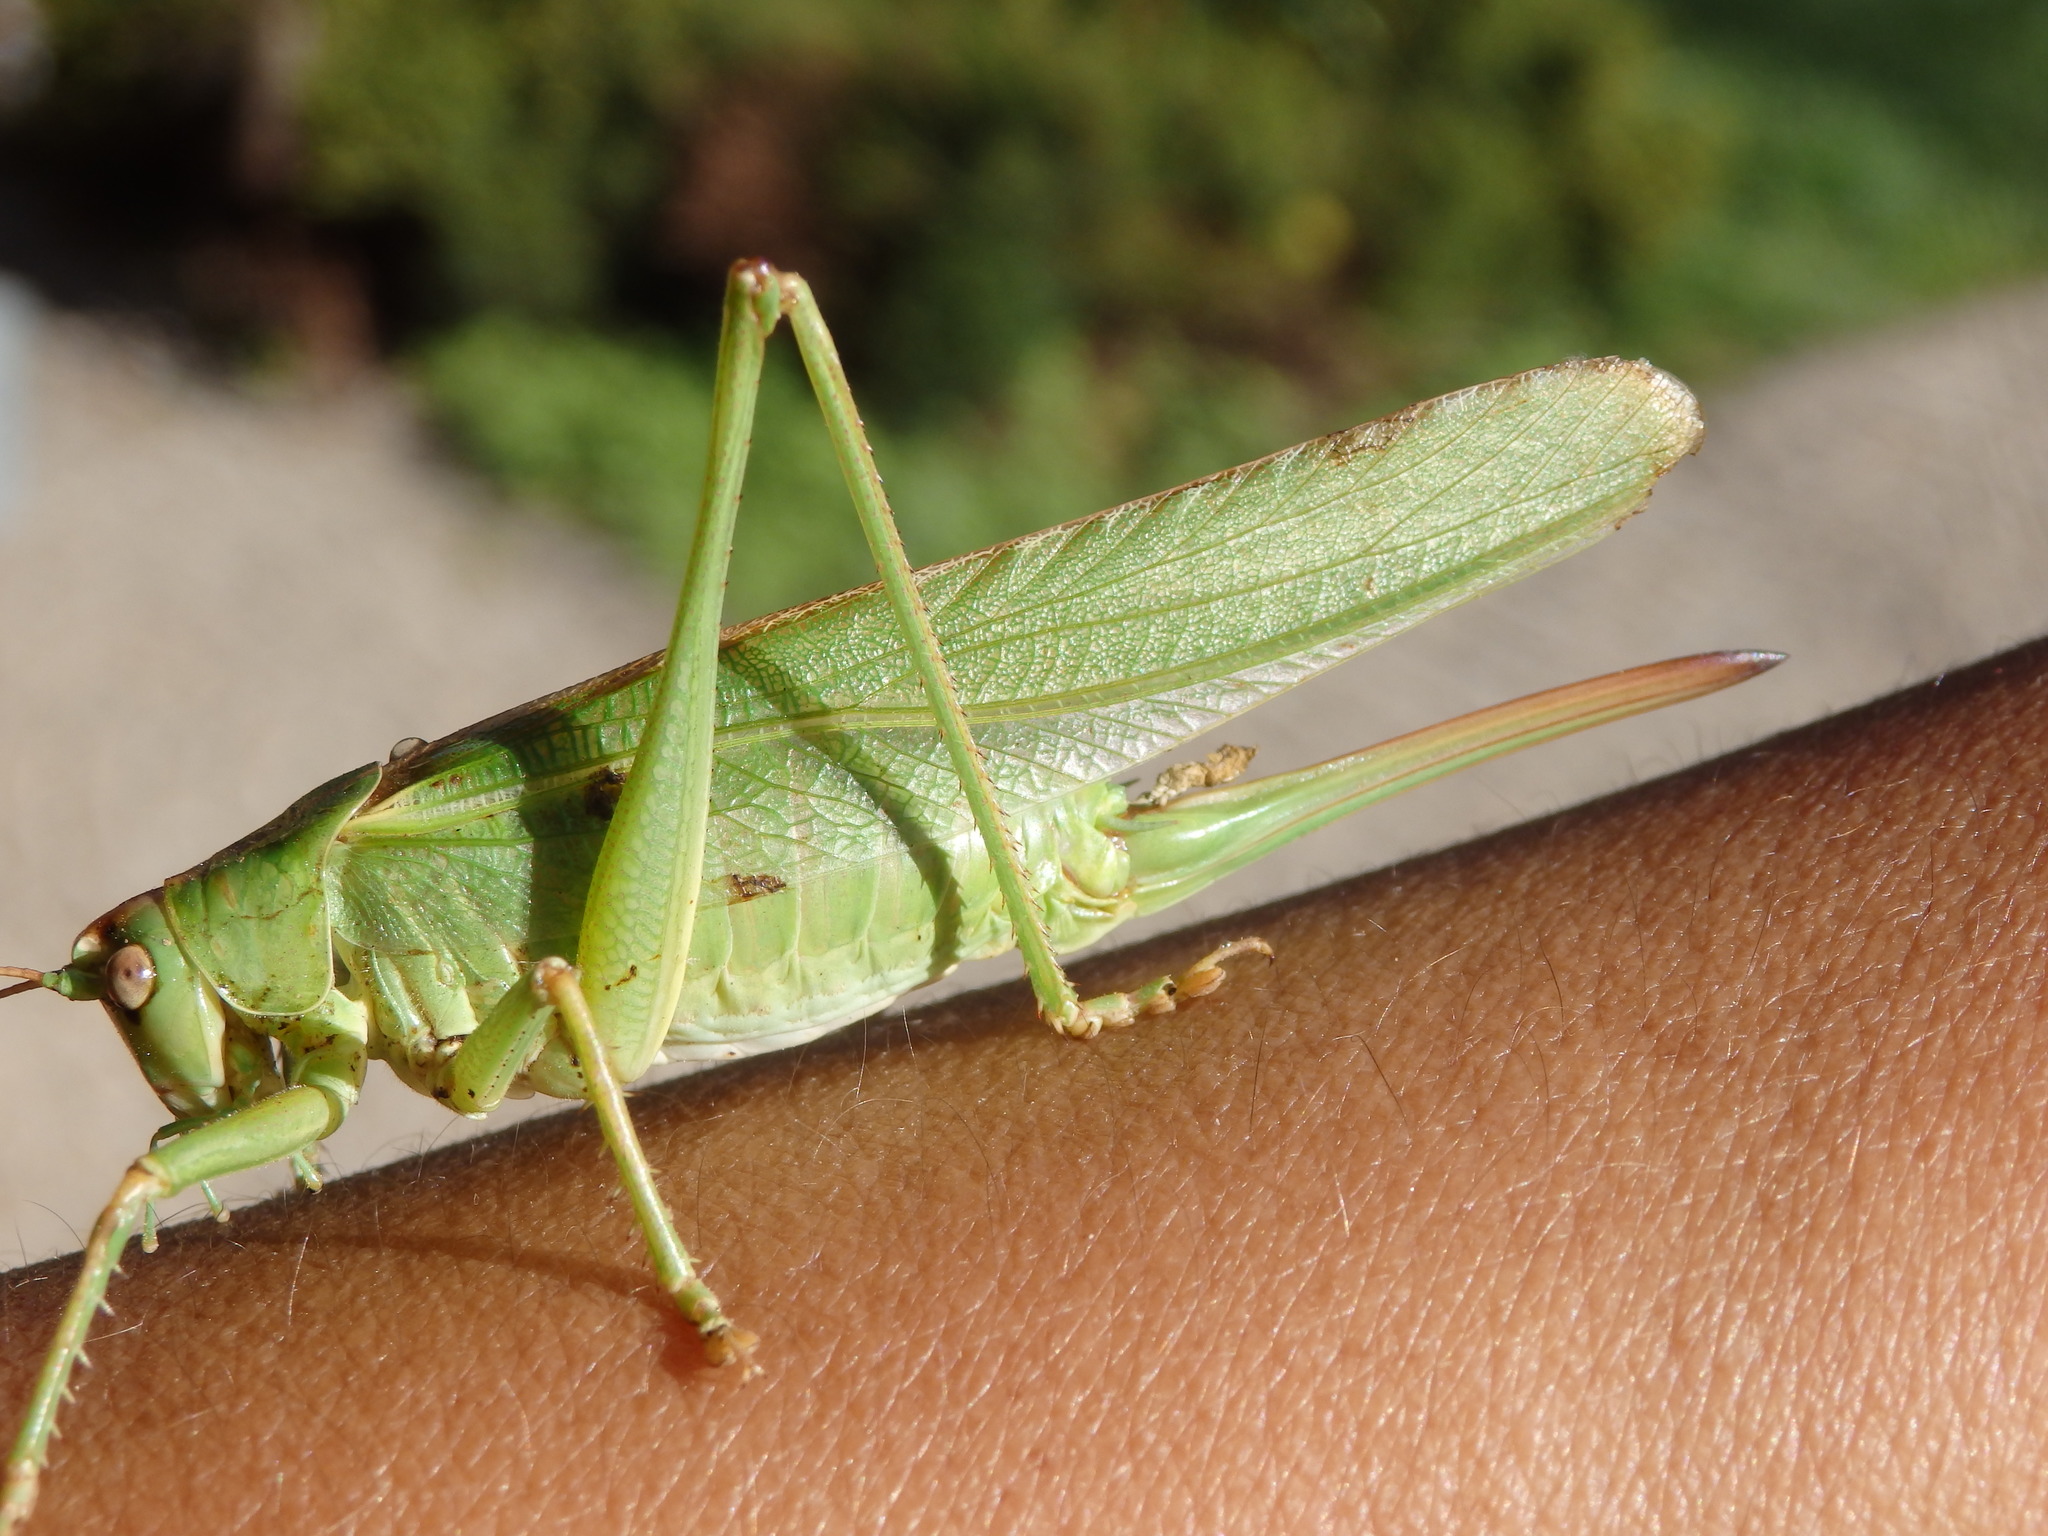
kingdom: Animalia
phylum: Arthropoda
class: Insecta
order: Orthoptera
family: Tettigoniidae
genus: Tettigonia
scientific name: Tettigonia viridissima
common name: Great green bush-cricket
